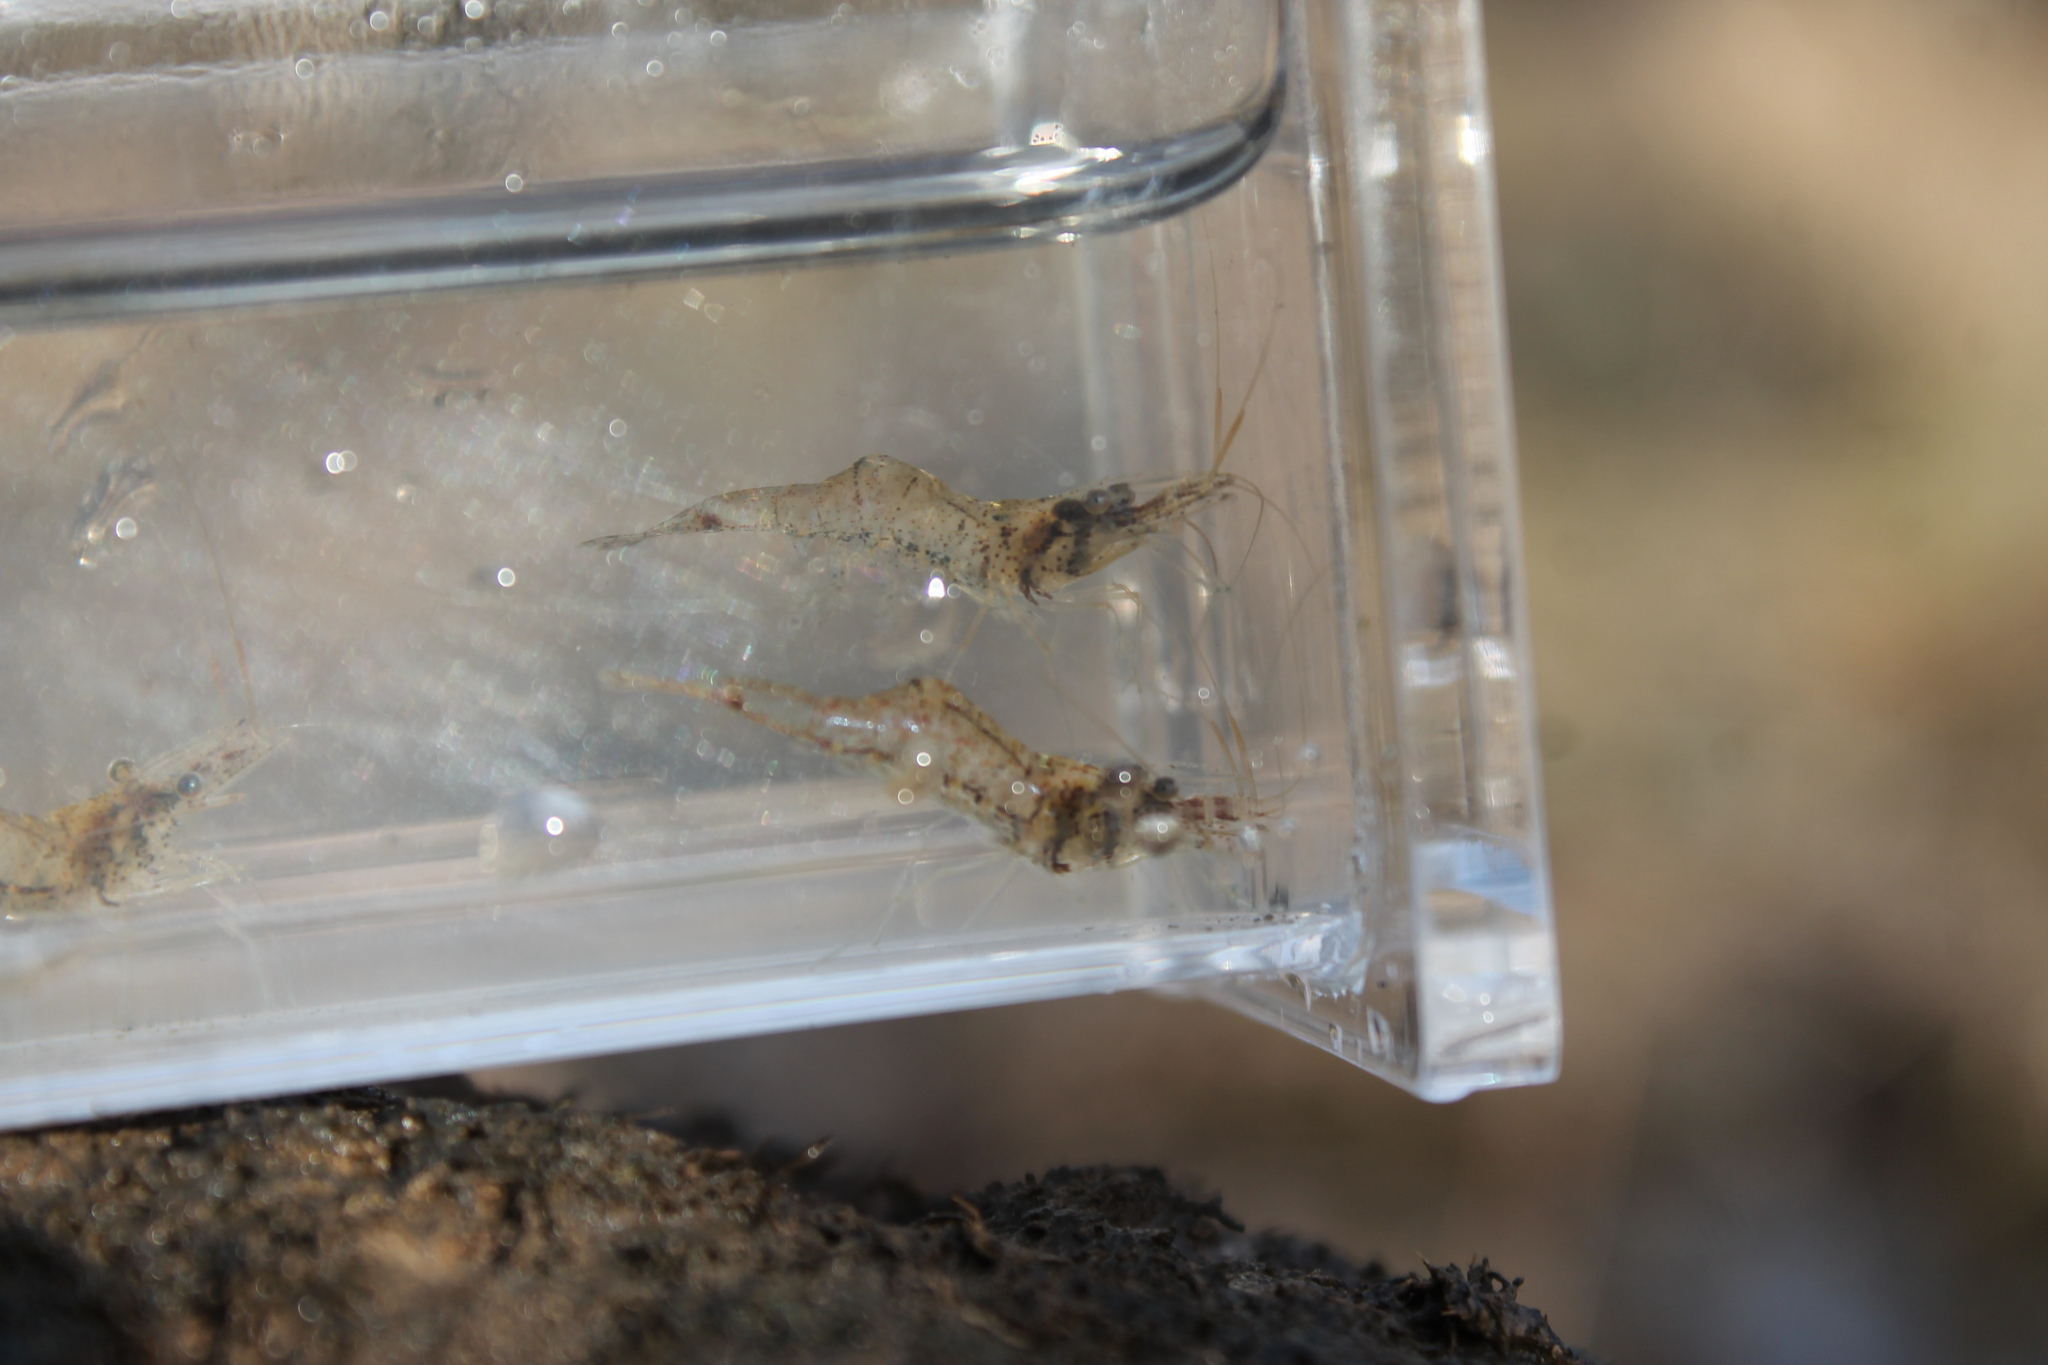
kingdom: Animalia
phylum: Arthropoda
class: Malacostraca
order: Decapoda
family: Palaemonidae
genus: Palaemon
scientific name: Palaemon kadiakensis
